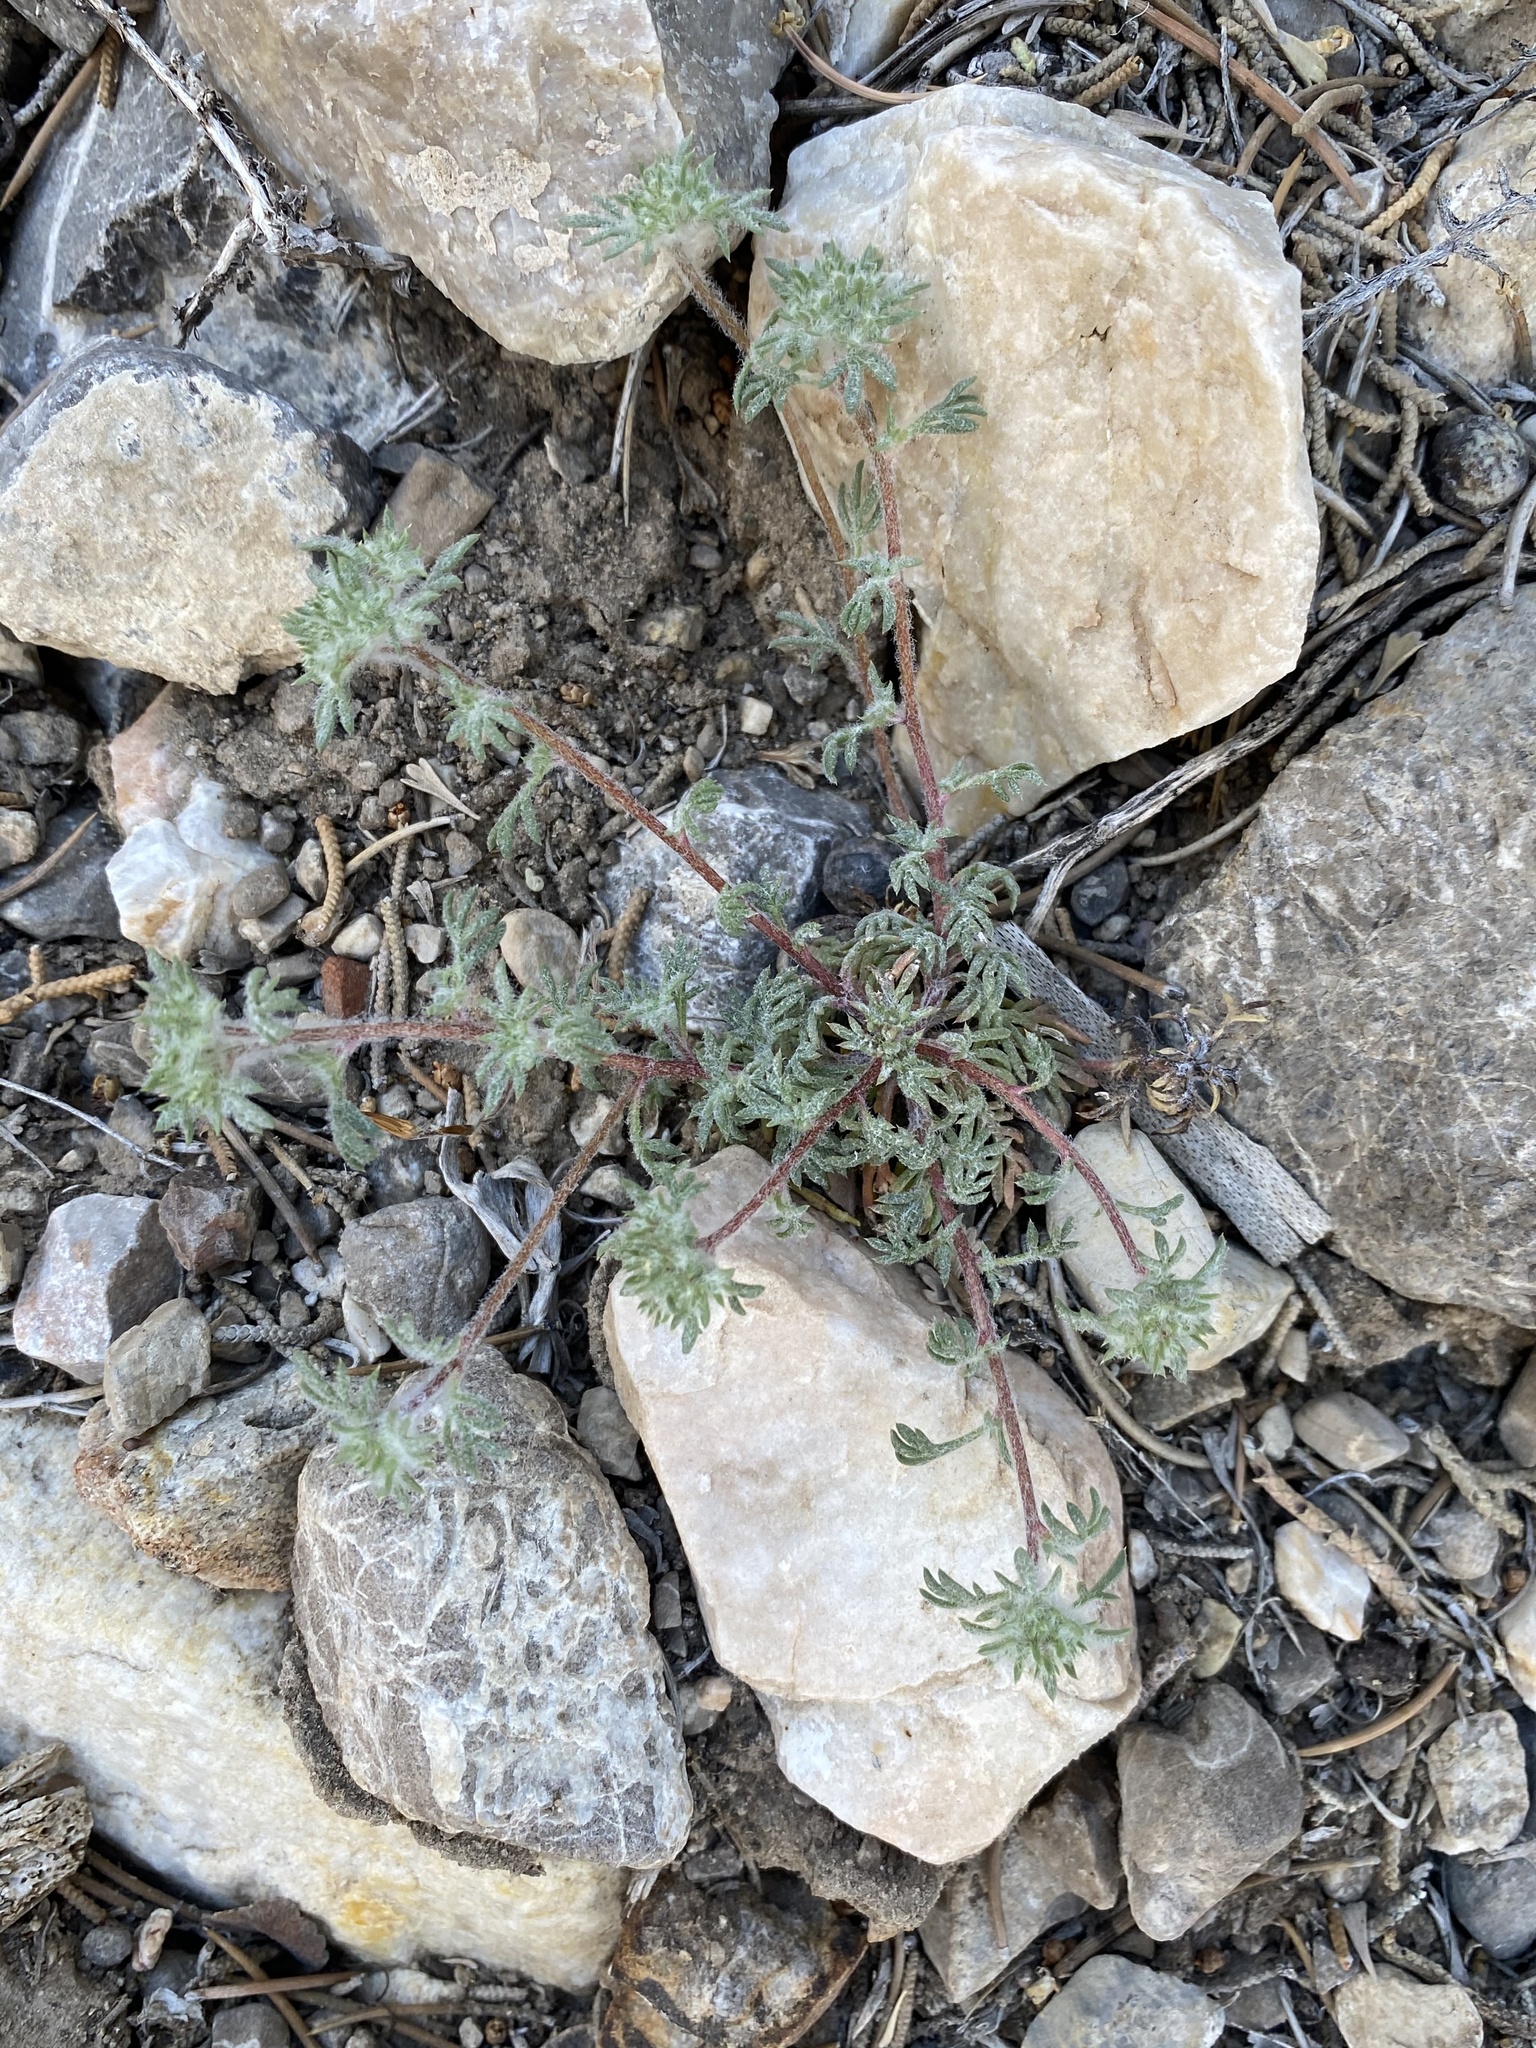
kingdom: Plantae
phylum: Tracheophyta
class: Magnoliopsida
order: Ericales
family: Polemoniaceae
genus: Ipomopsis
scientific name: Ipomopsis congesta
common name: Ball-head gilia
